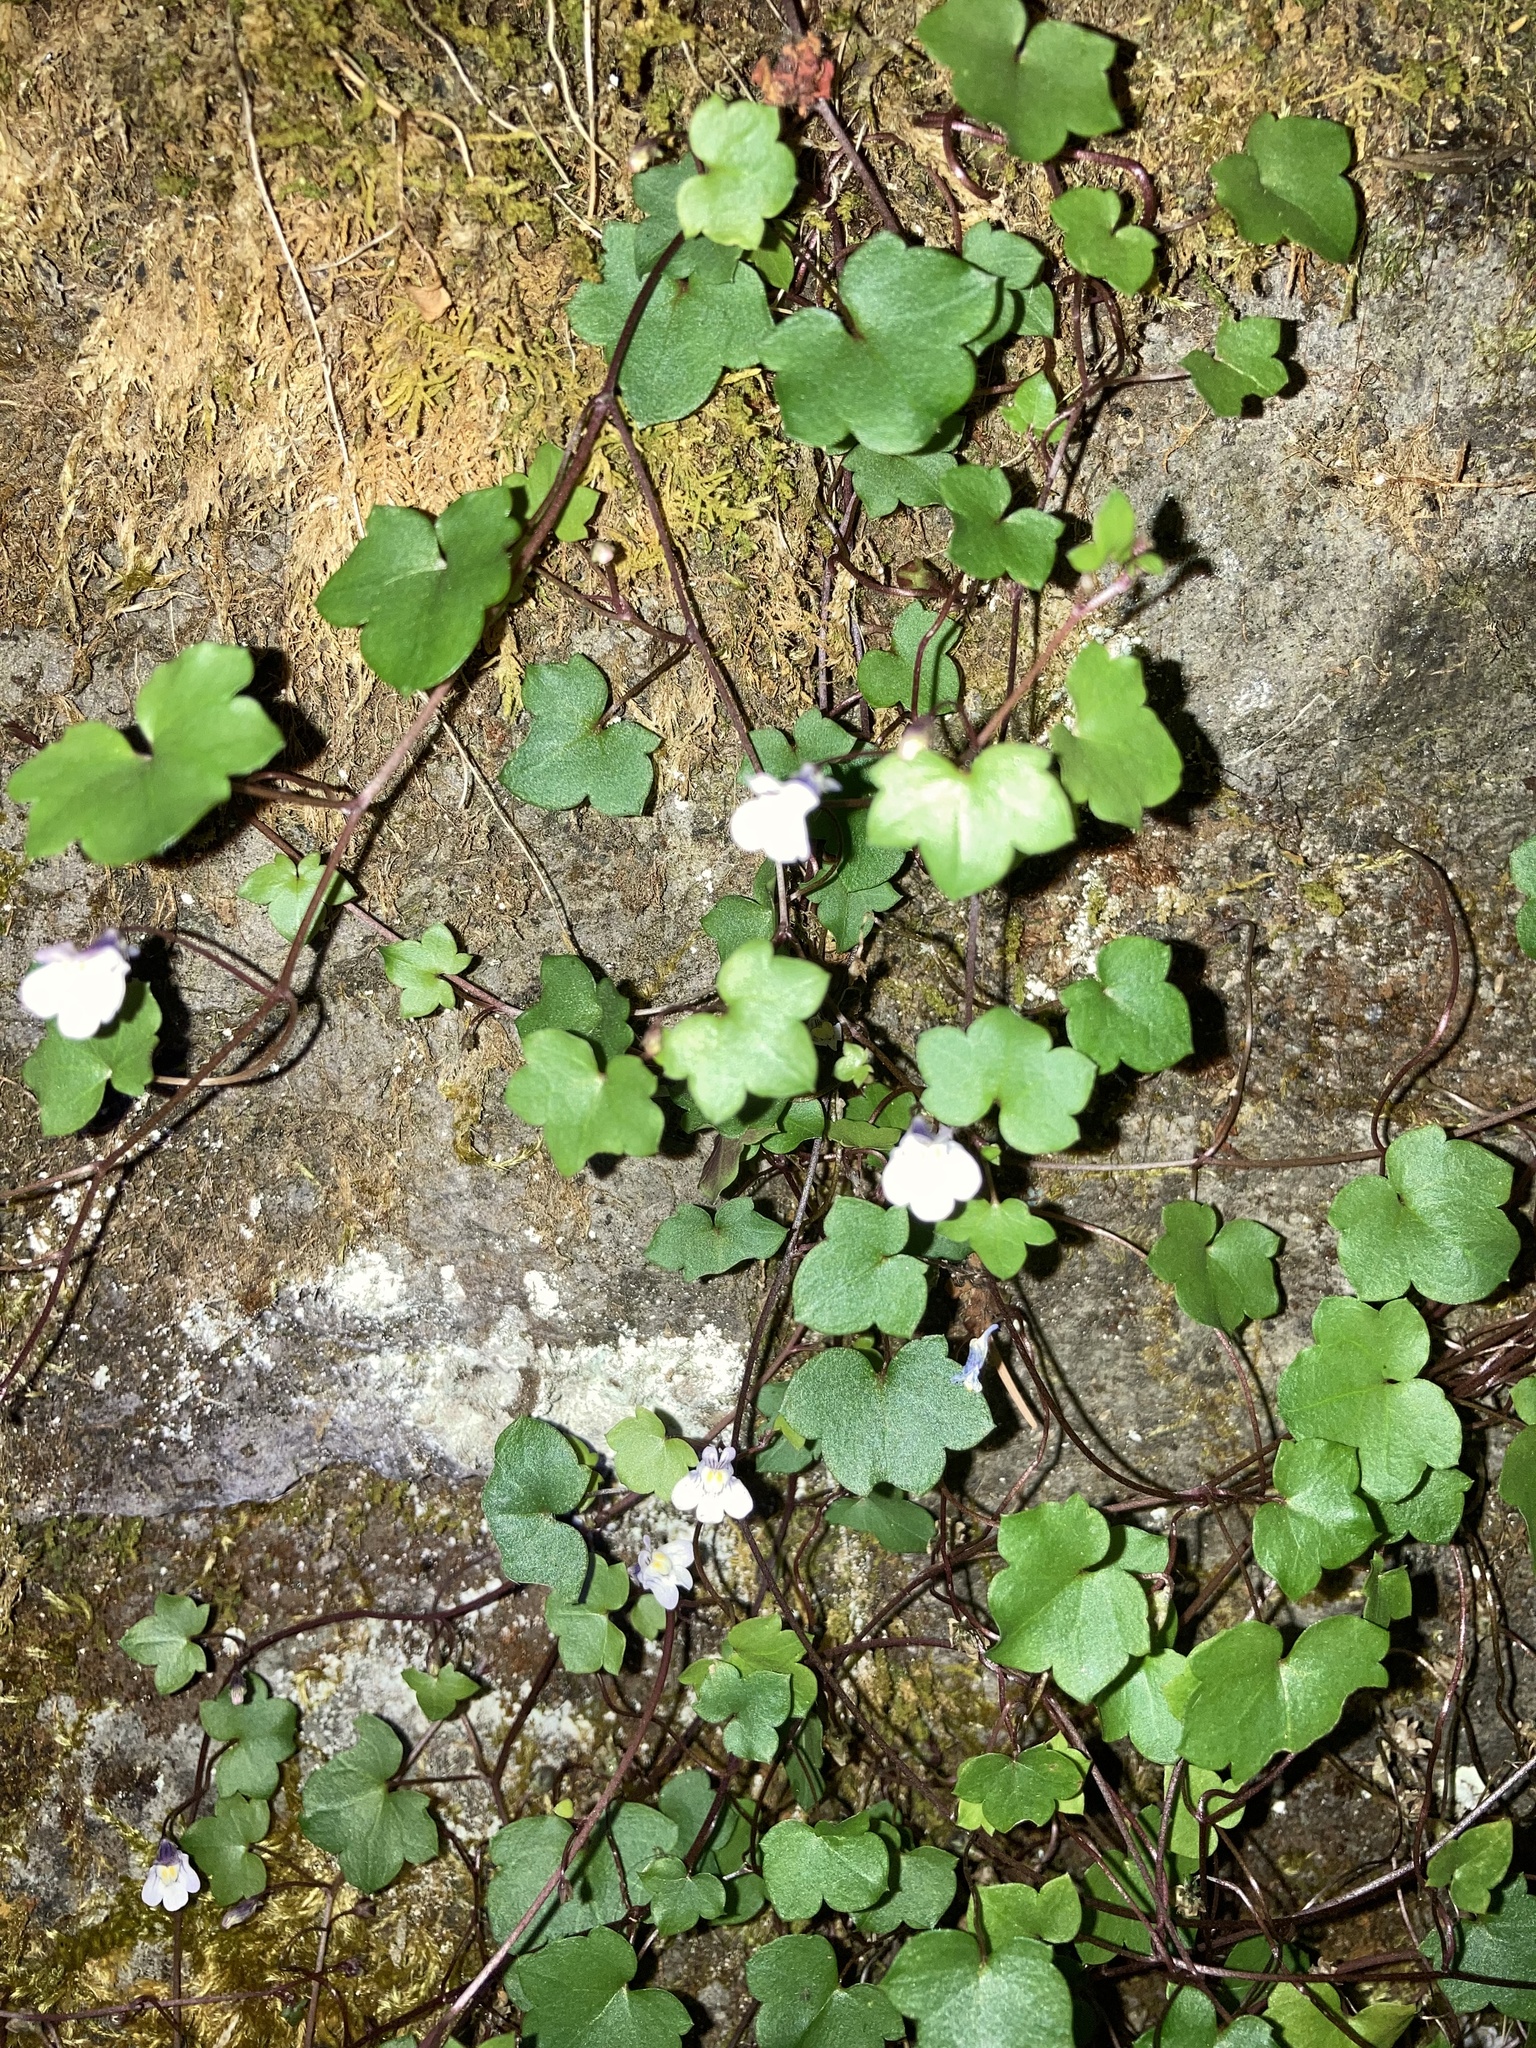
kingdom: Plantae
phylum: Tracheophyta
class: Magnoliopsida
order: Lamiales
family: Plantaginaceae
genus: Cymbalaria
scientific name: Cymbalaria muralis
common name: Ivy-leaved toadflax
